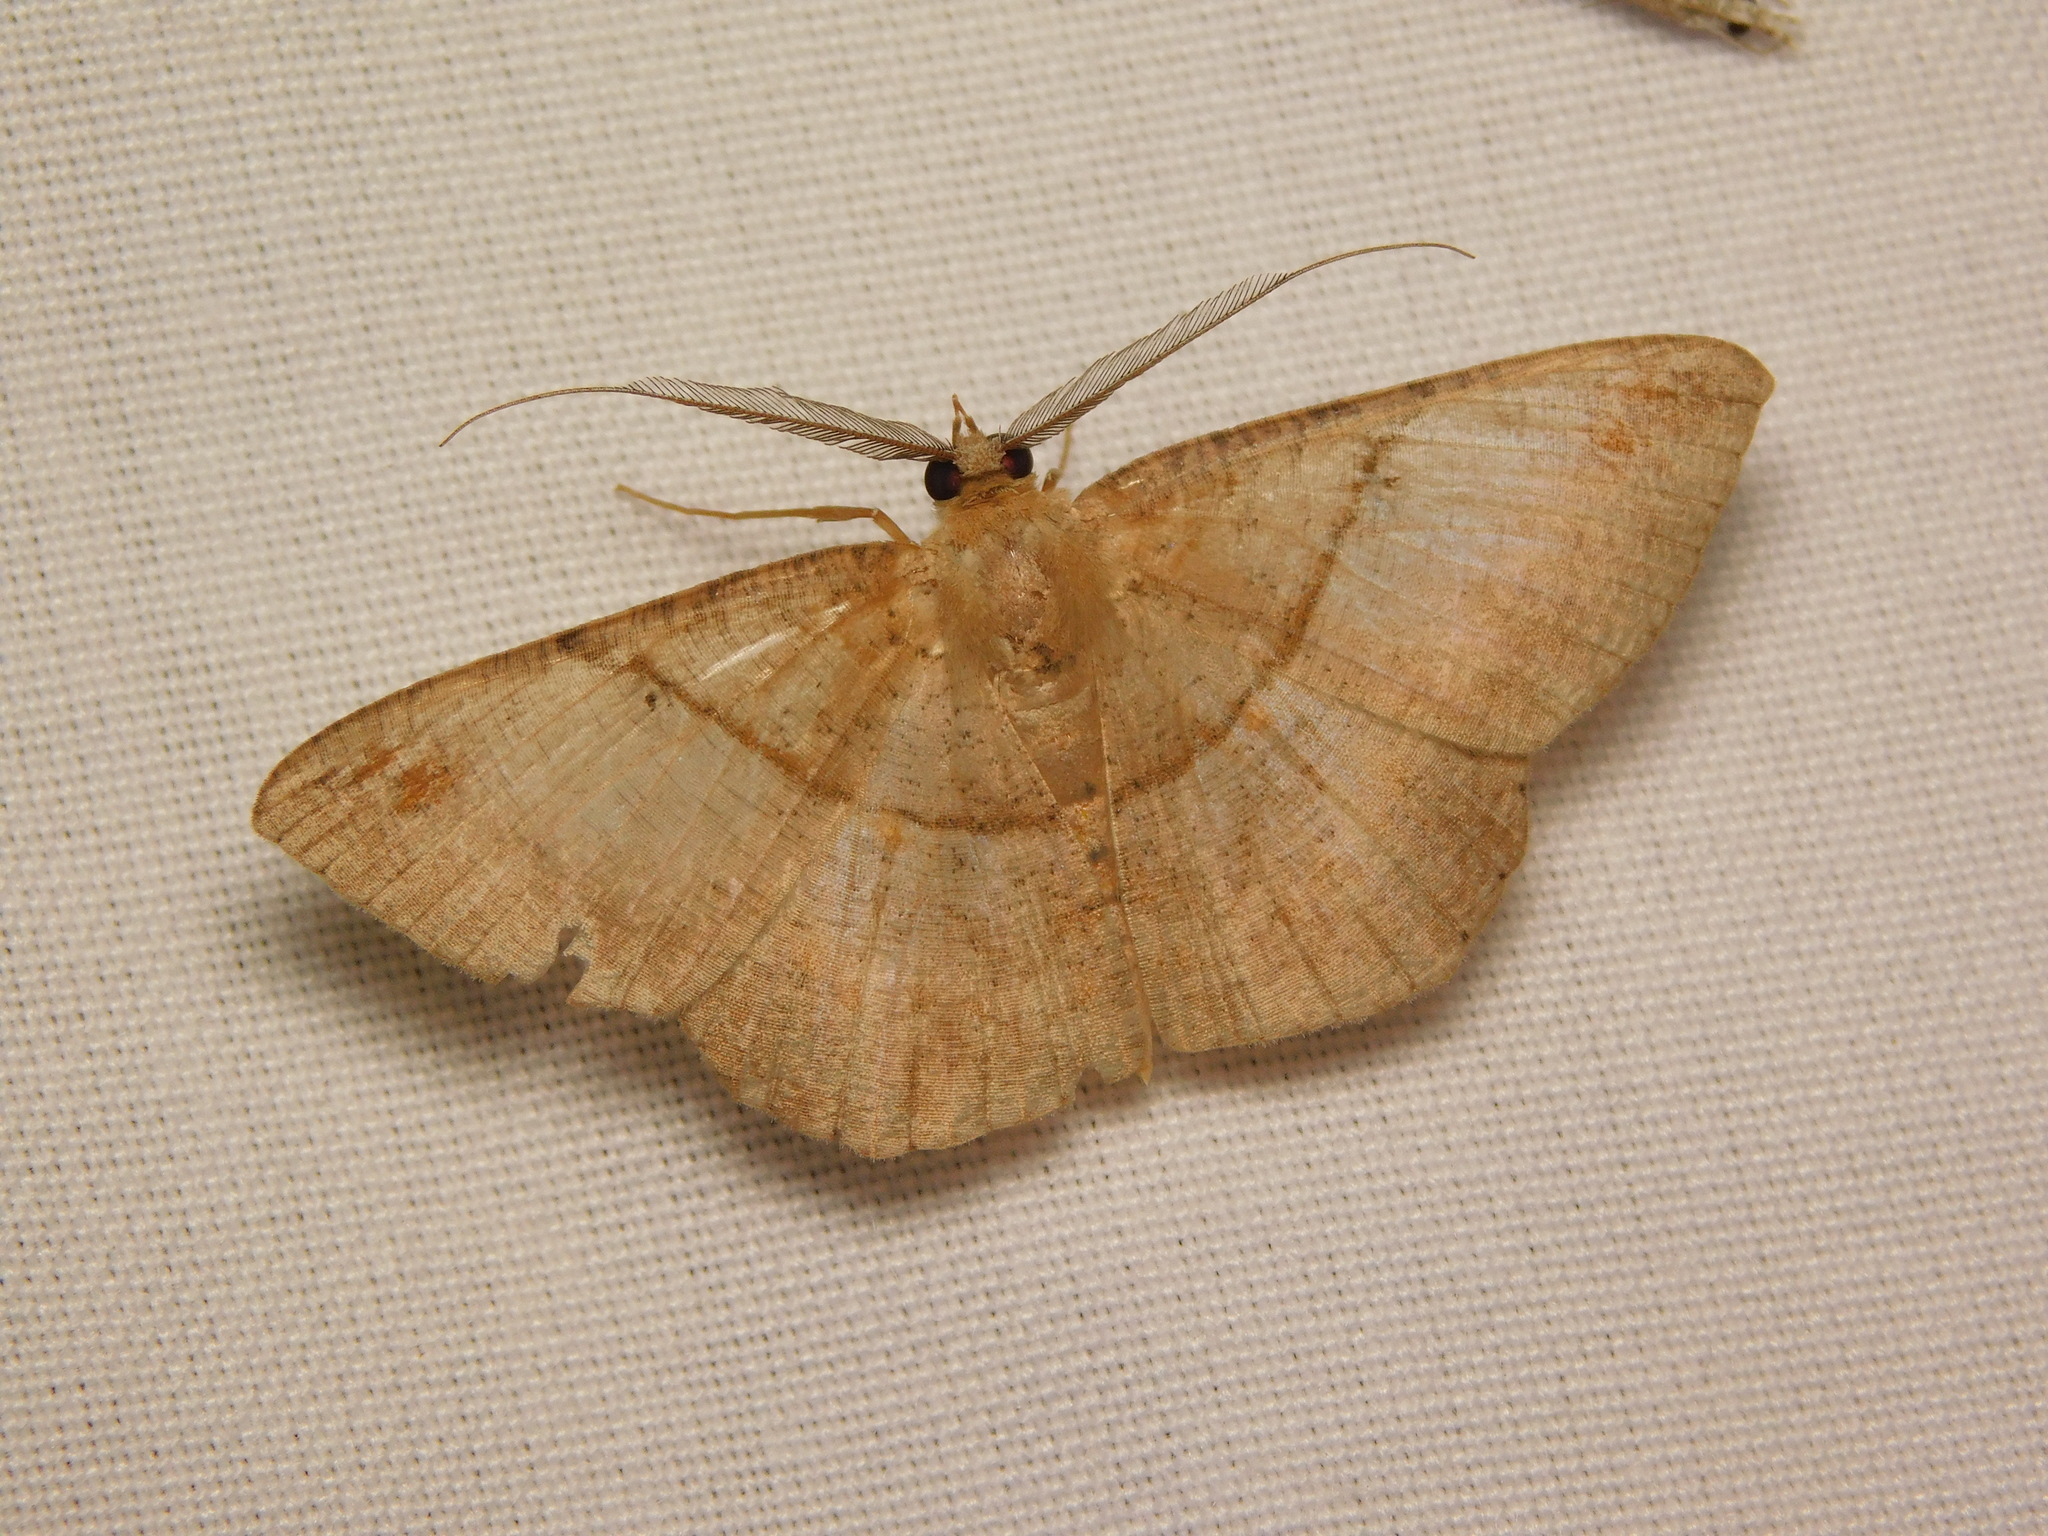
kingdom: Animalia
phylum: Arthropoda
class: Insecta
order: Lepidoptera
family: Geometridae
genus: Petelia
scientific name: Petelia medardaria
